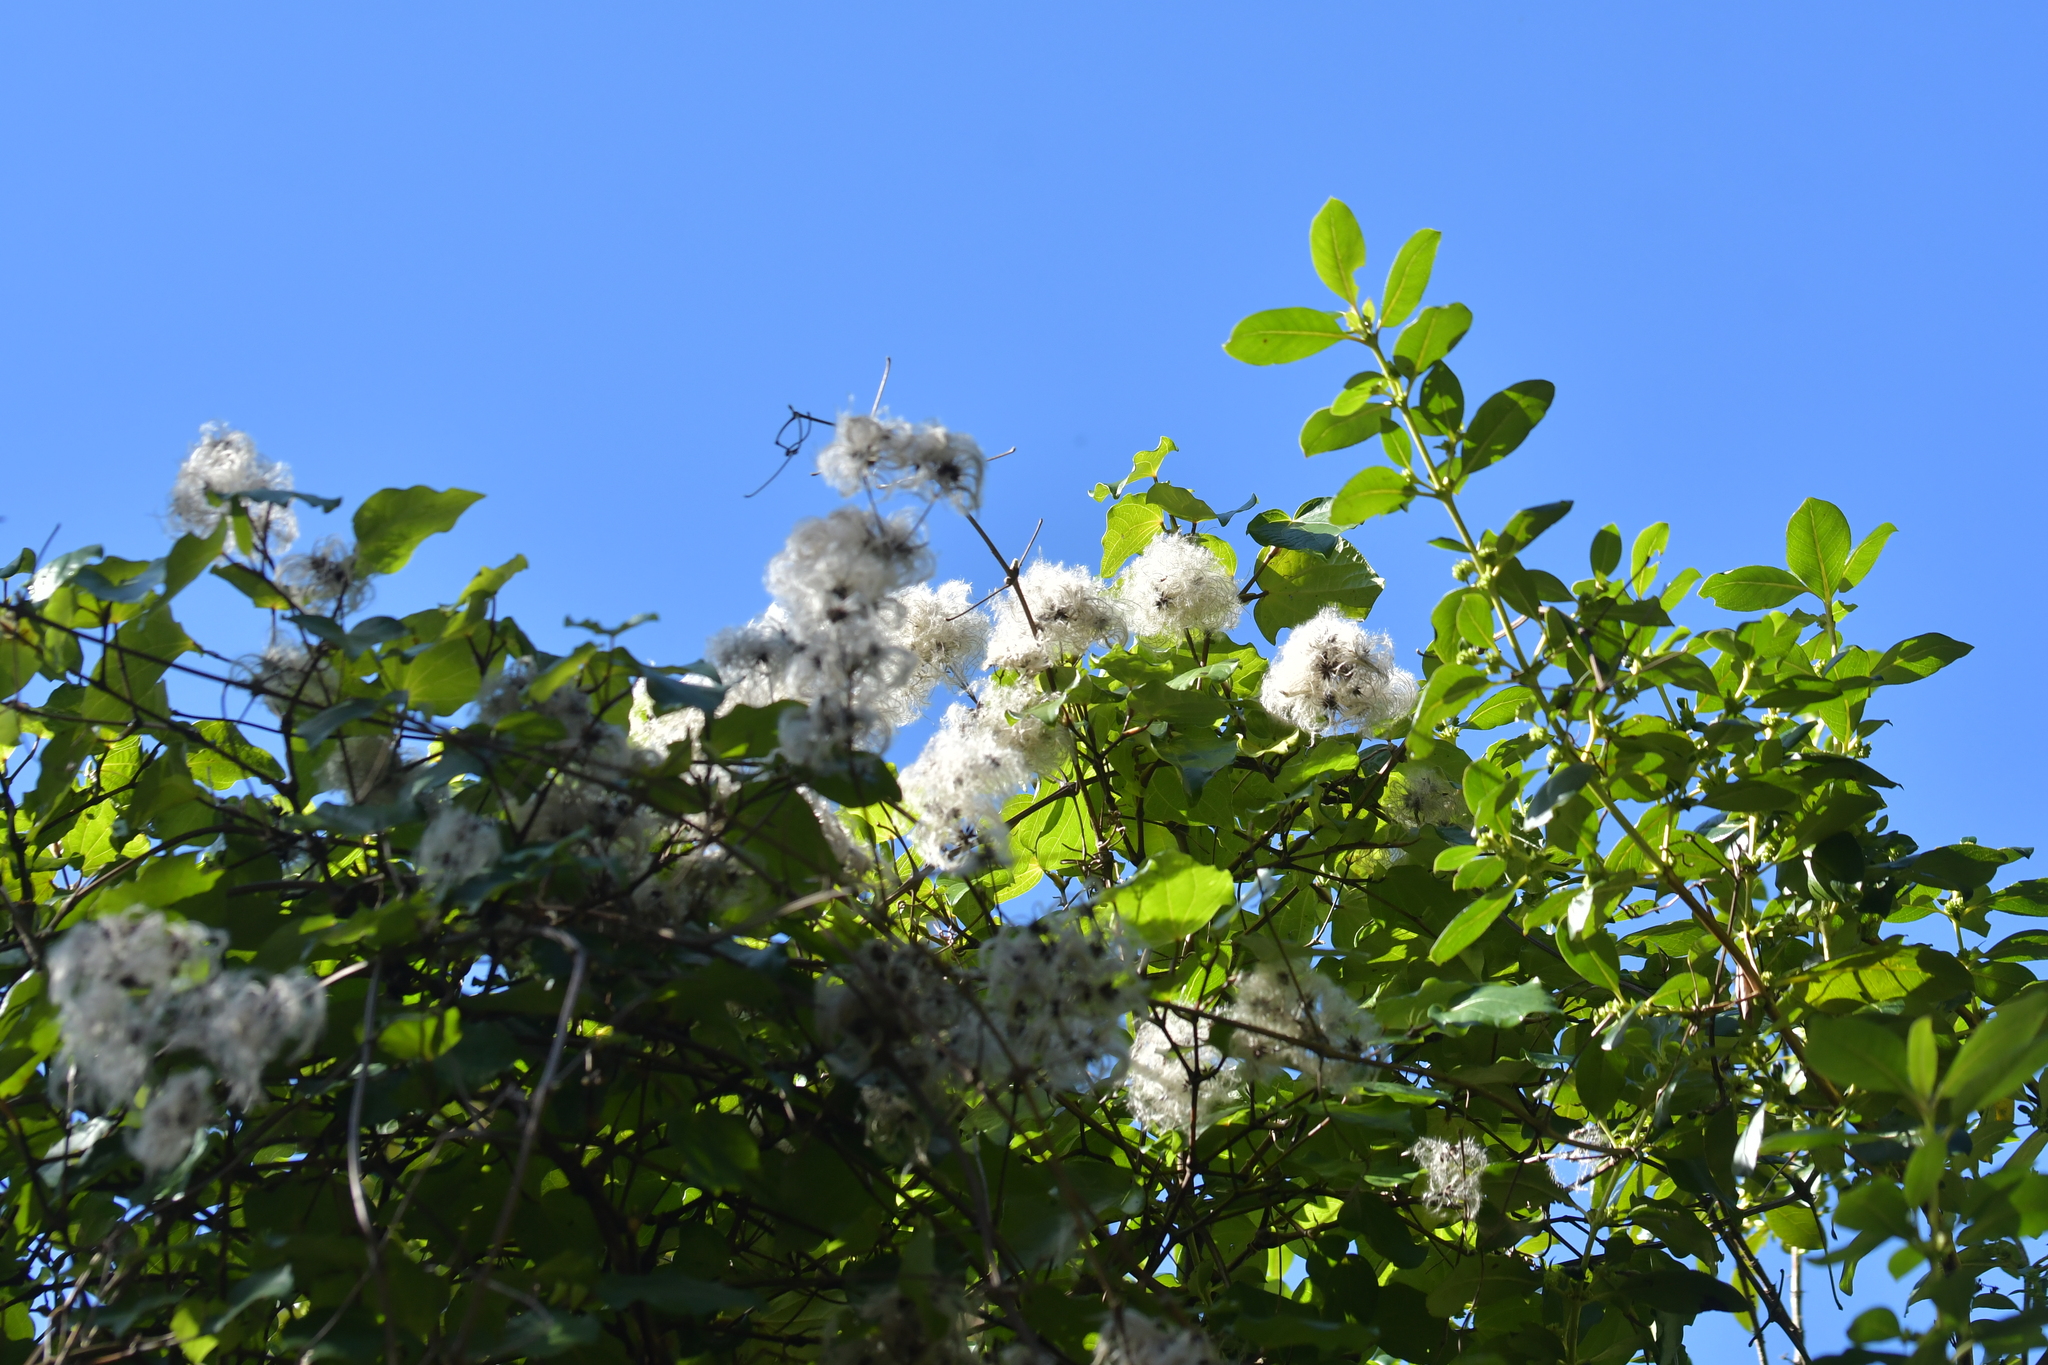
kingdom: Plantae
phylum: Tracheophyta
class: Magnoliopsida
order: Ranunculales
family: Ranunculaceae
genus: Clematis
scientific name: Clematis vitalba
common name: Evergreen clematis
